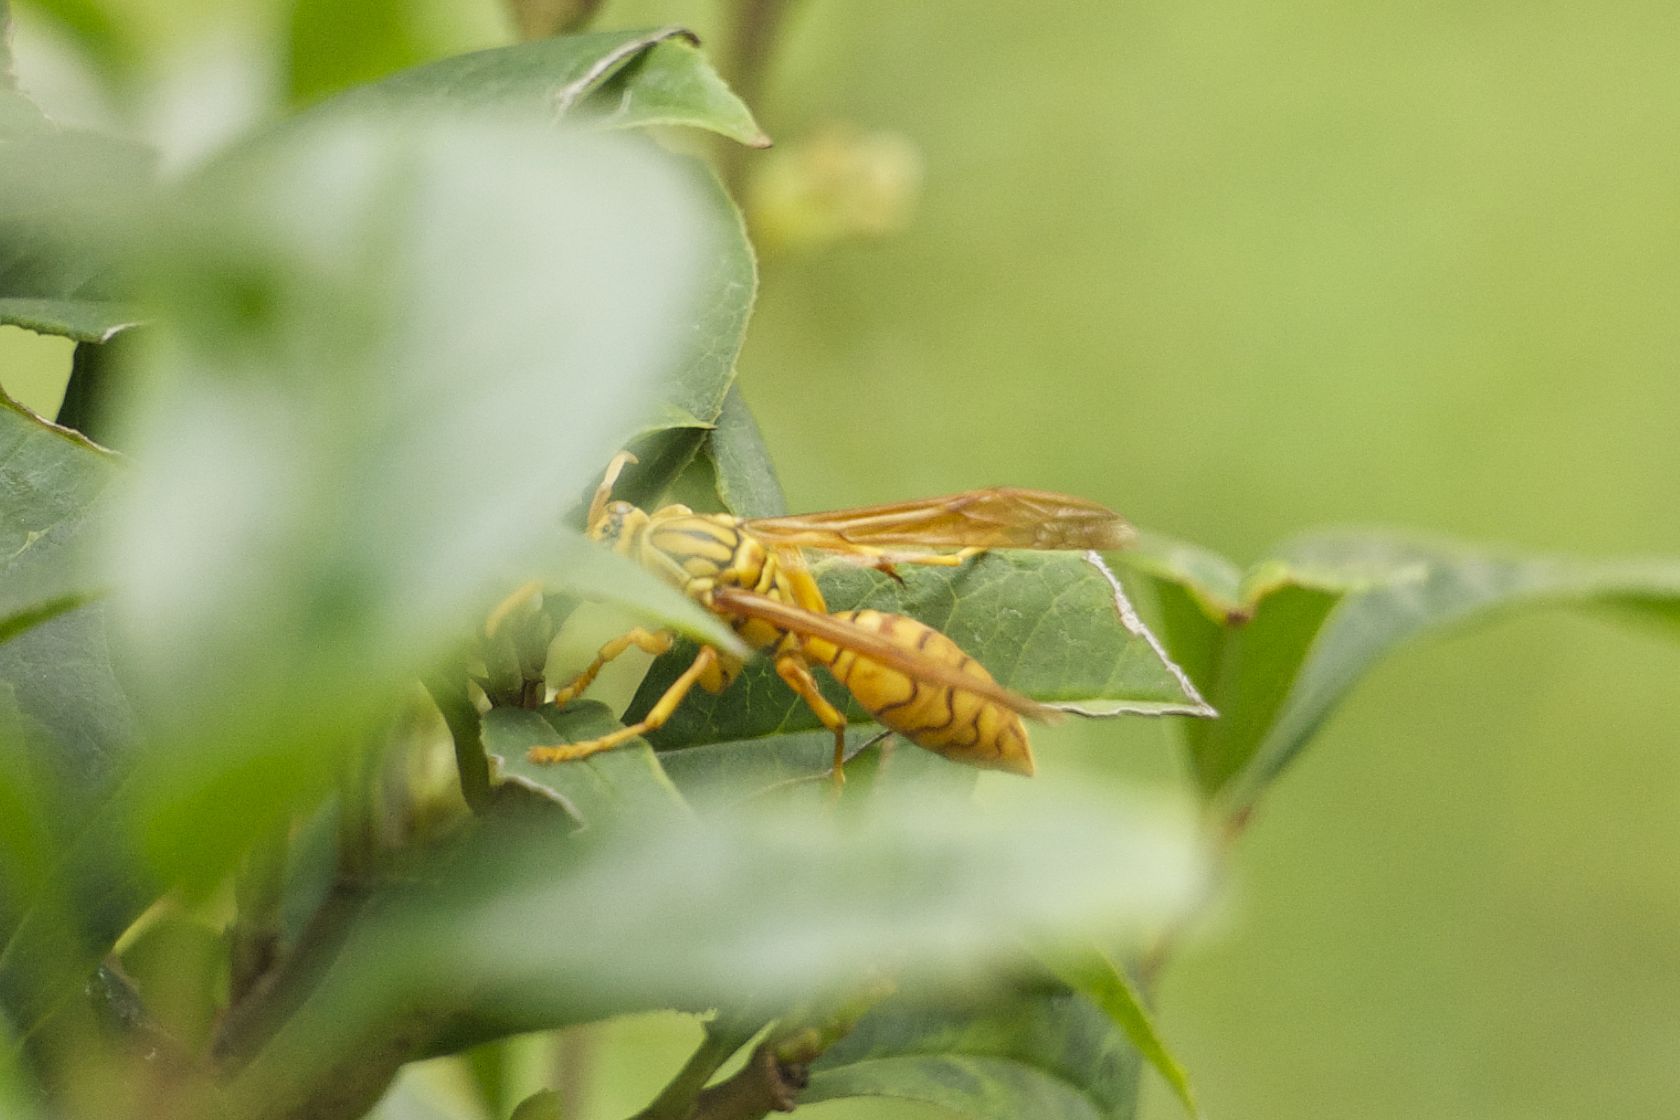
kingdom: Animalia
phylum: Arthropoda
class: Insecta
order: Hymenoptera
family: Eumenidae
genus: Polistes
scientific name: Polistes olivaceus
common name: Paper wasp
